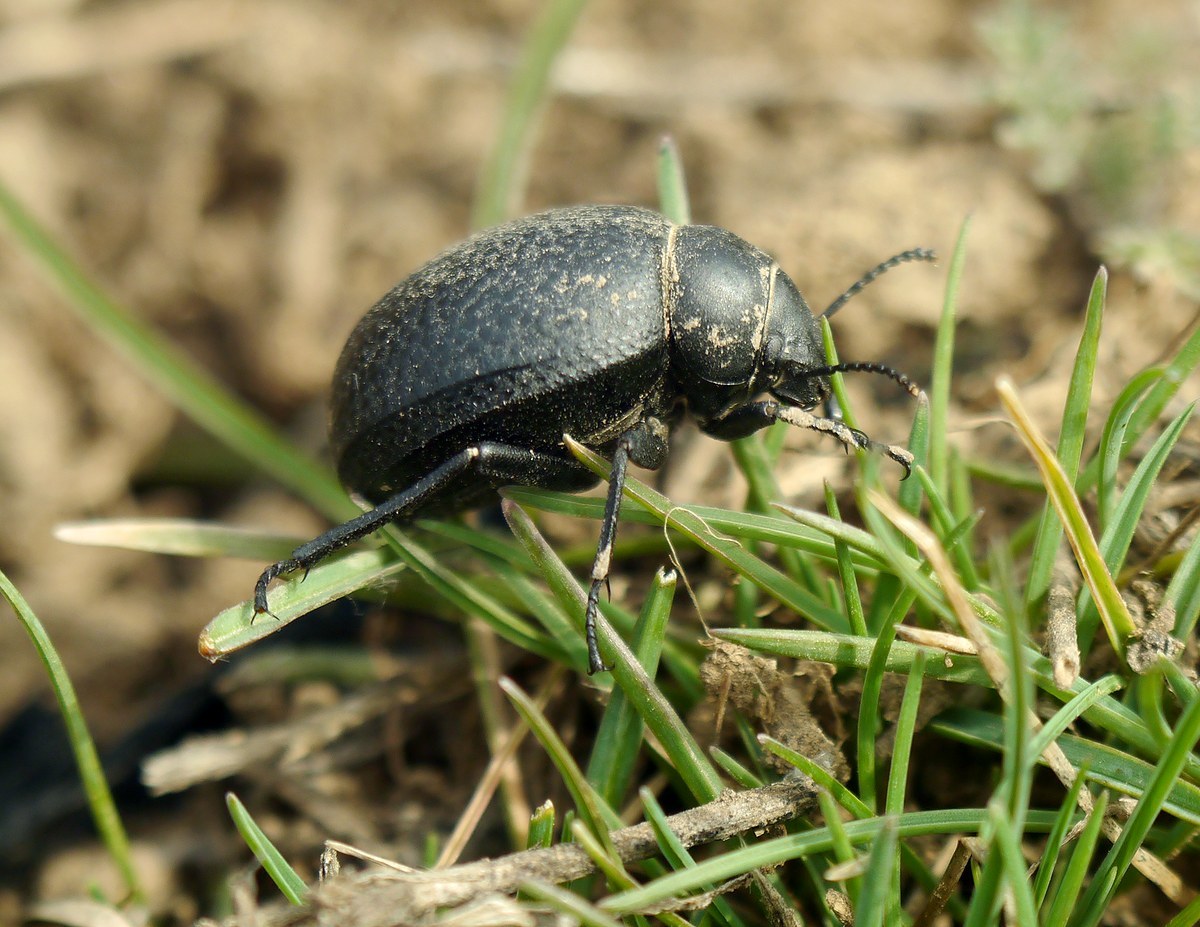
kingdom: Animalia
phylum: Arthropoda
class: Insecta
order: Coleoptera
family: Tenebrionidae
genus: Pimelia
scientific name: Pimelia subglobosa
